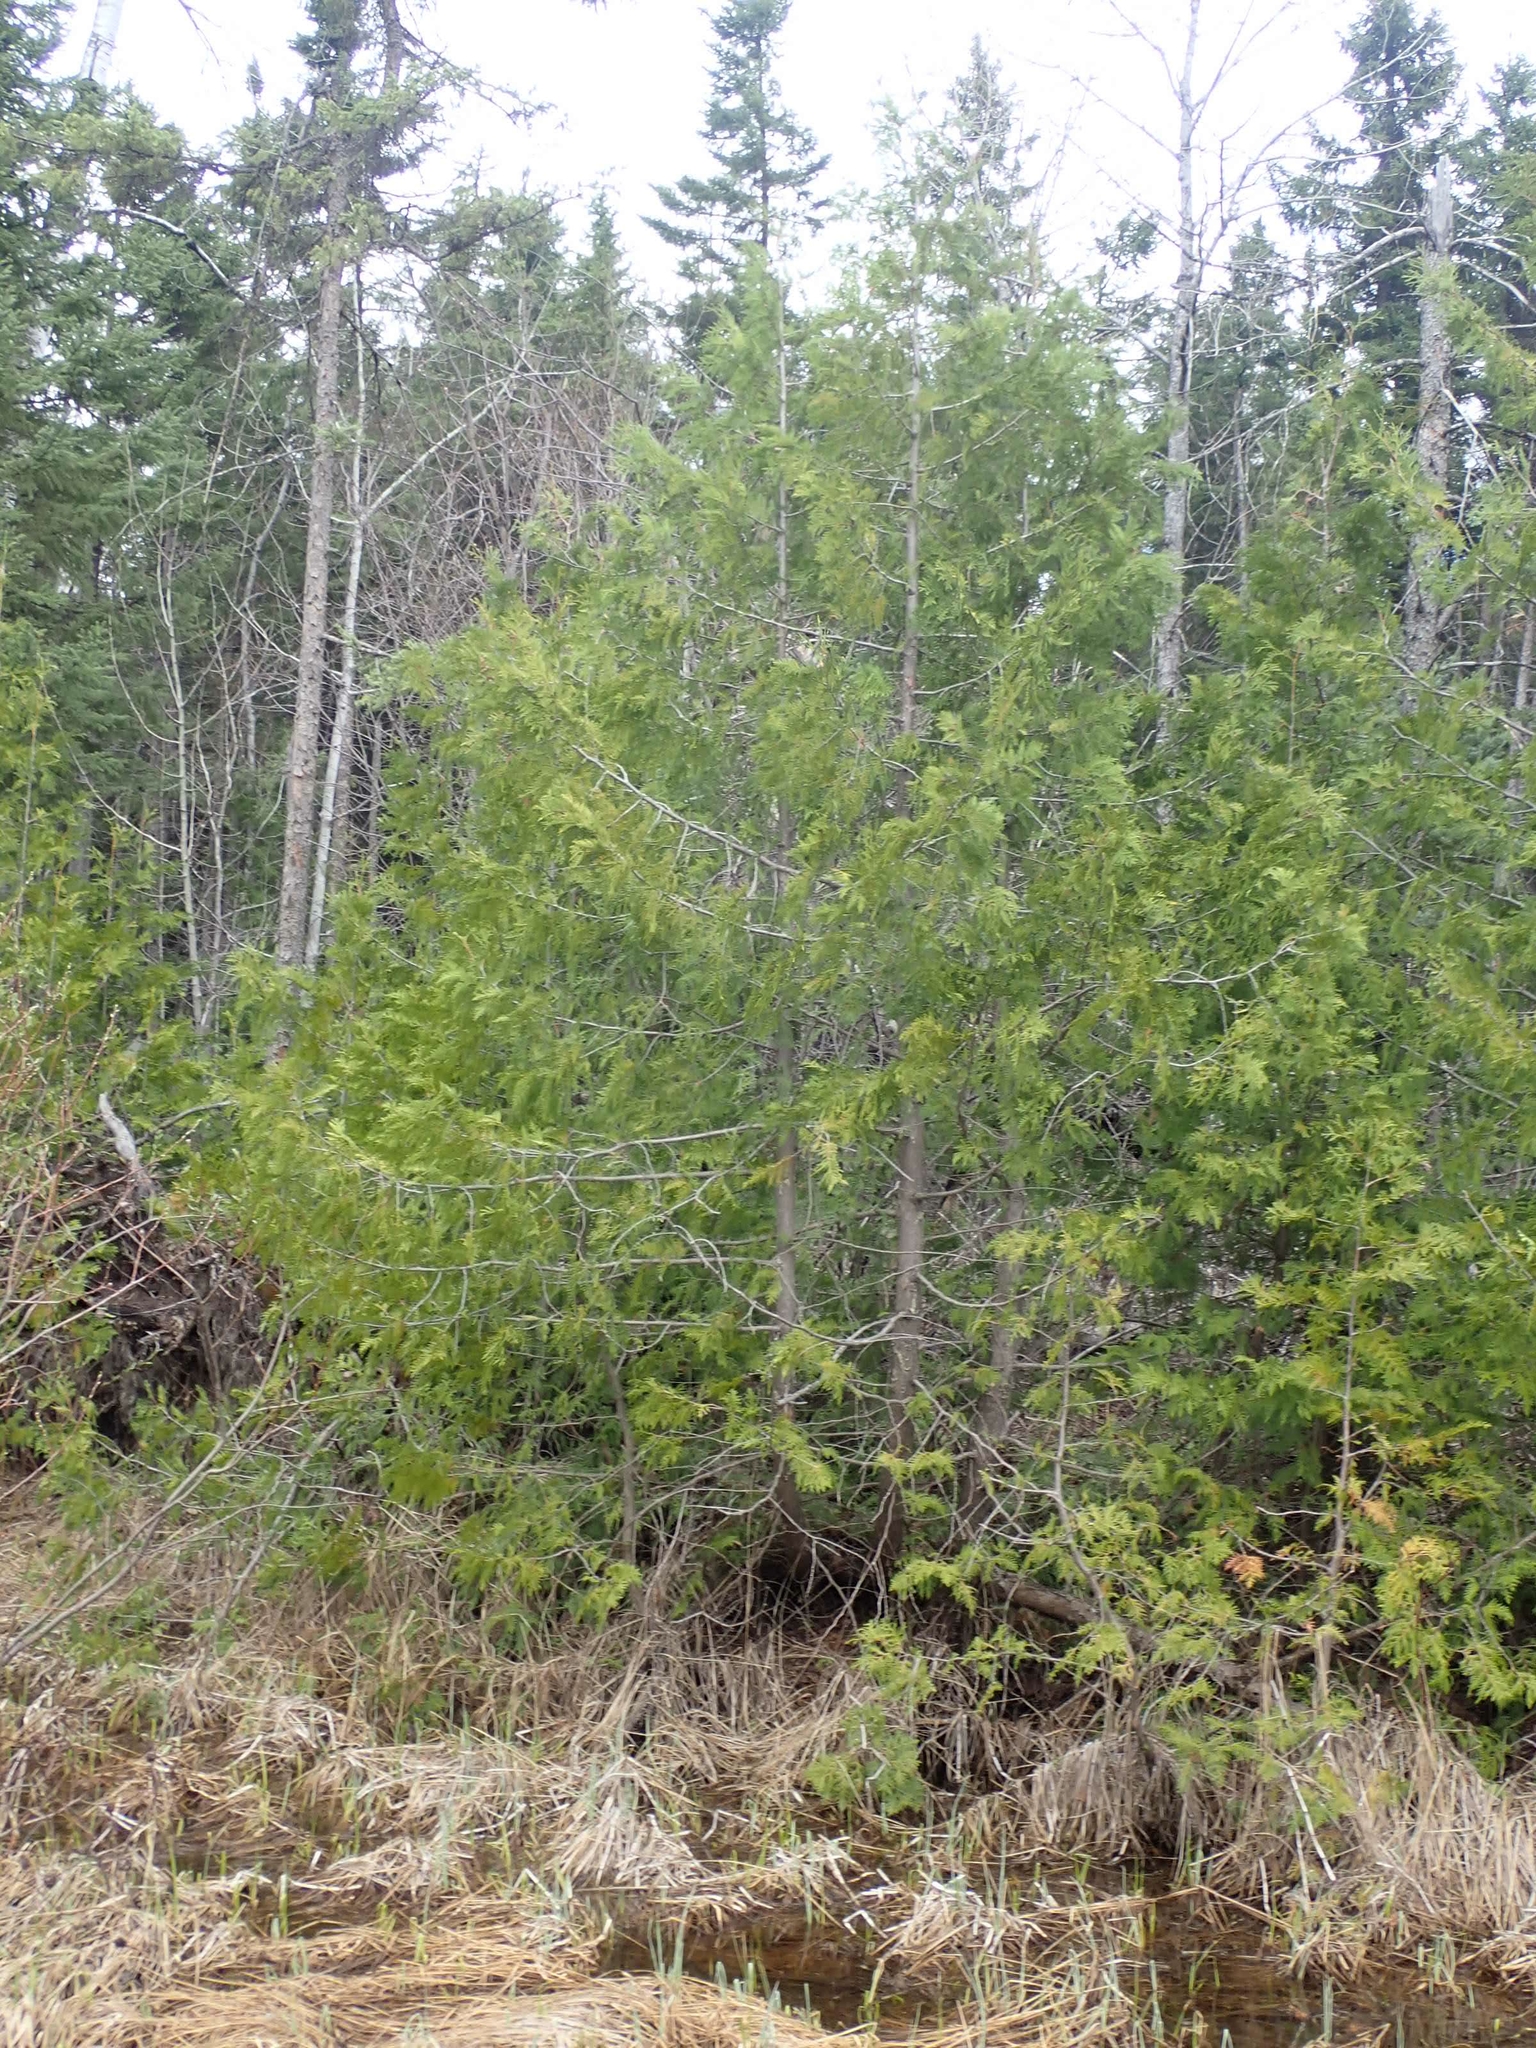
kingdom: Plantae
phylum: Tracheophyta
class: Pinopsida
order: Pinales
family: Cupressaceae
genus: Thuja
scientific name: Thuja occidentalis
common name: Northern white-cedar
